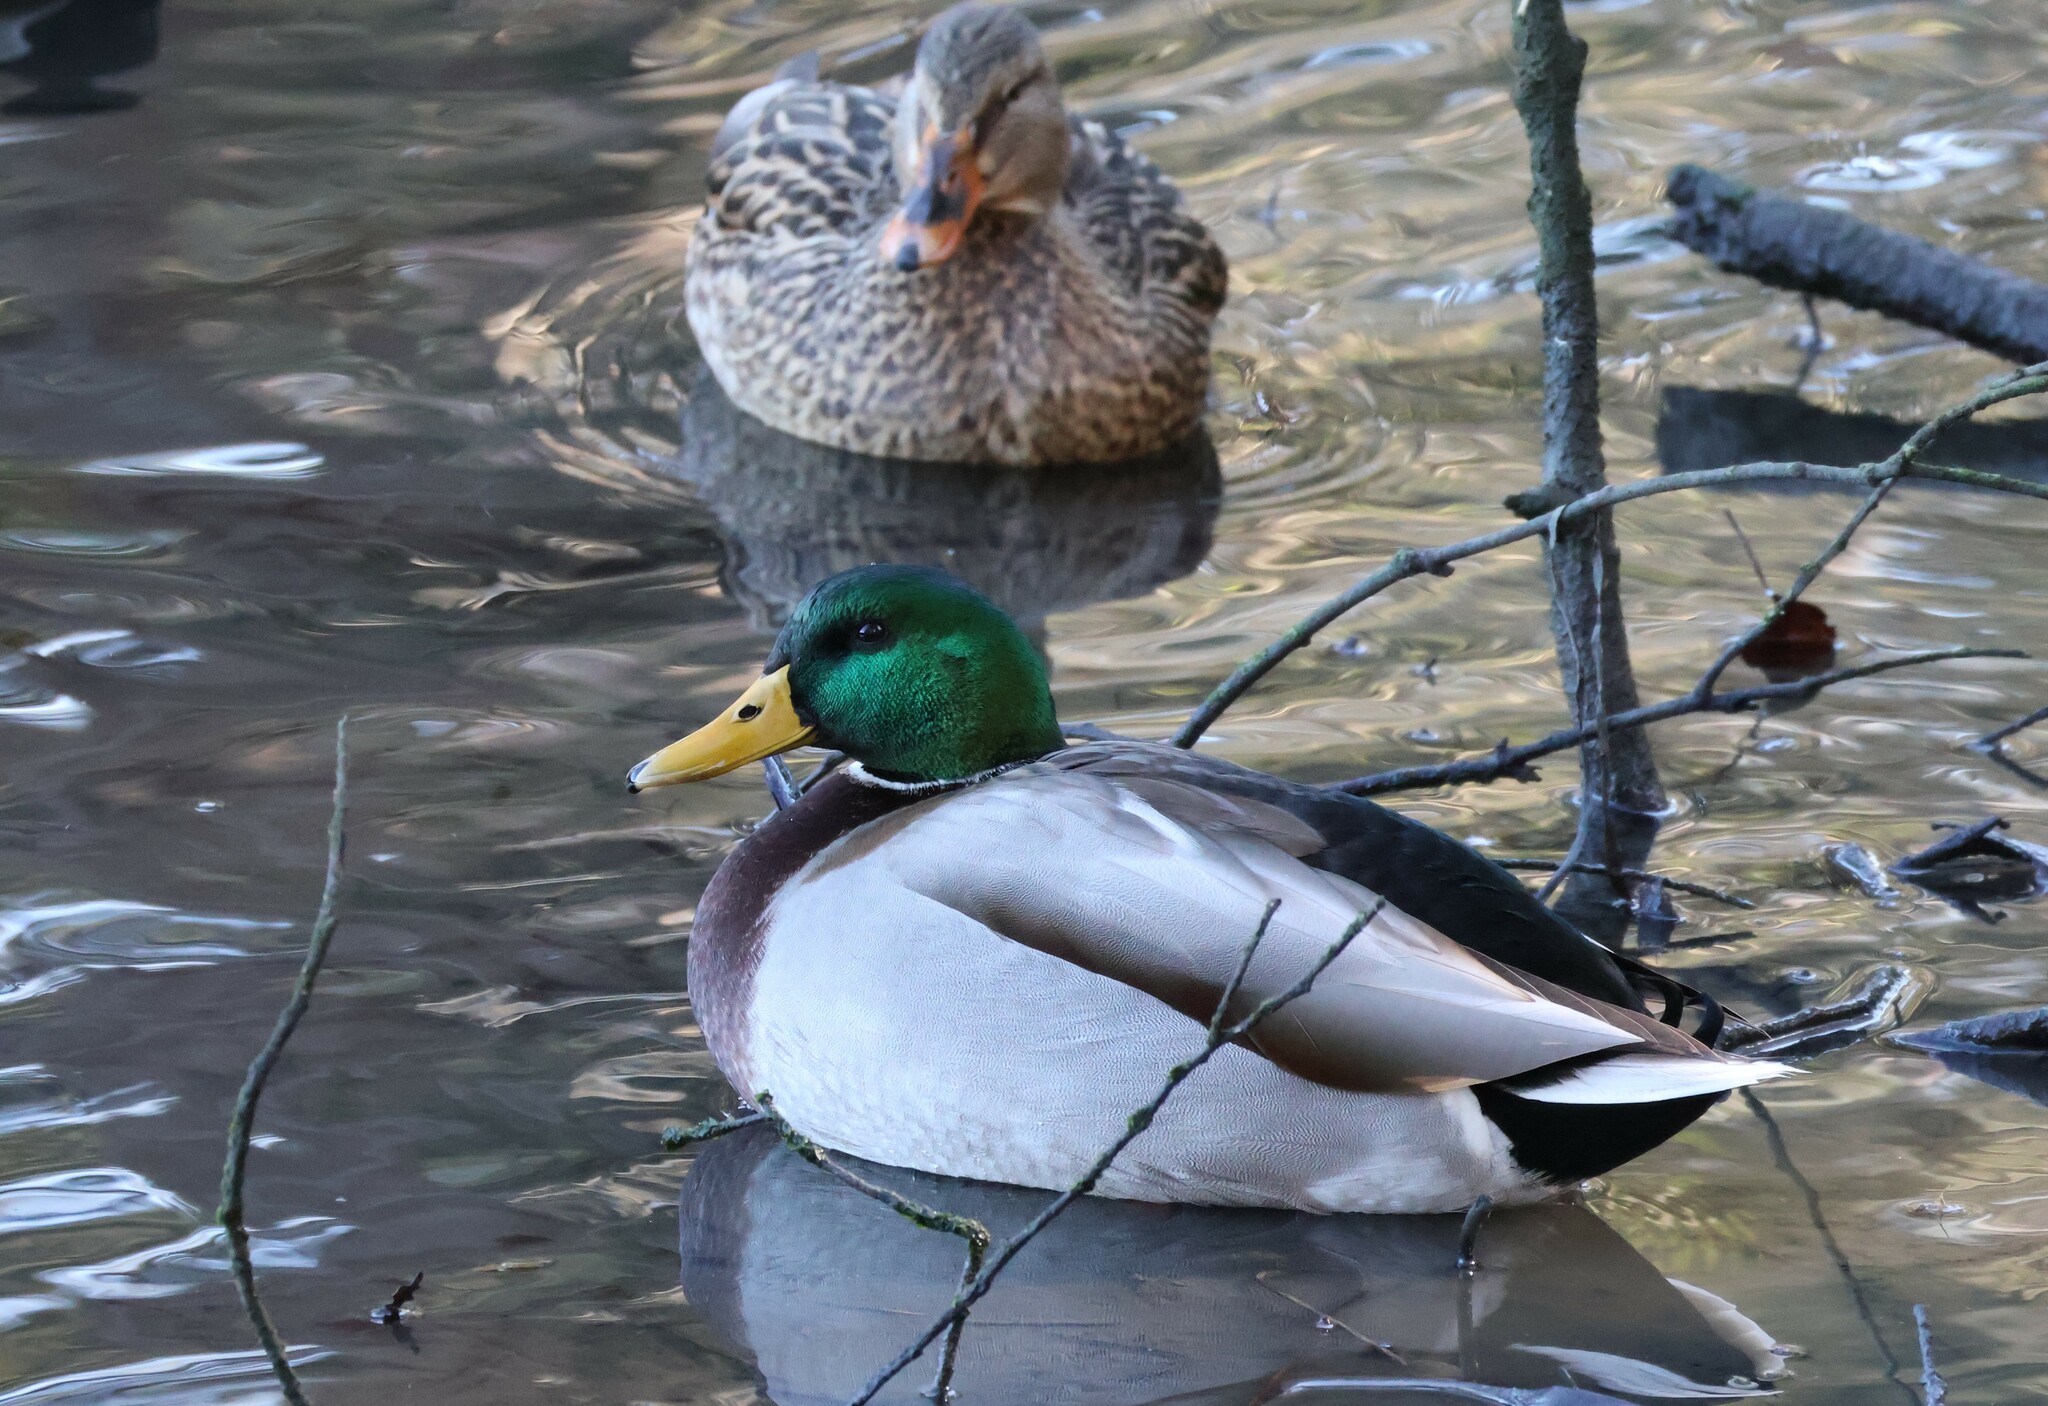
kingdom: Animalia
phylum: Chordata
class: Aves
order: Anseriformes
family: Anatidae
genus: Anas
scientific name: Anas platyrhynchos
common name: Mallard
